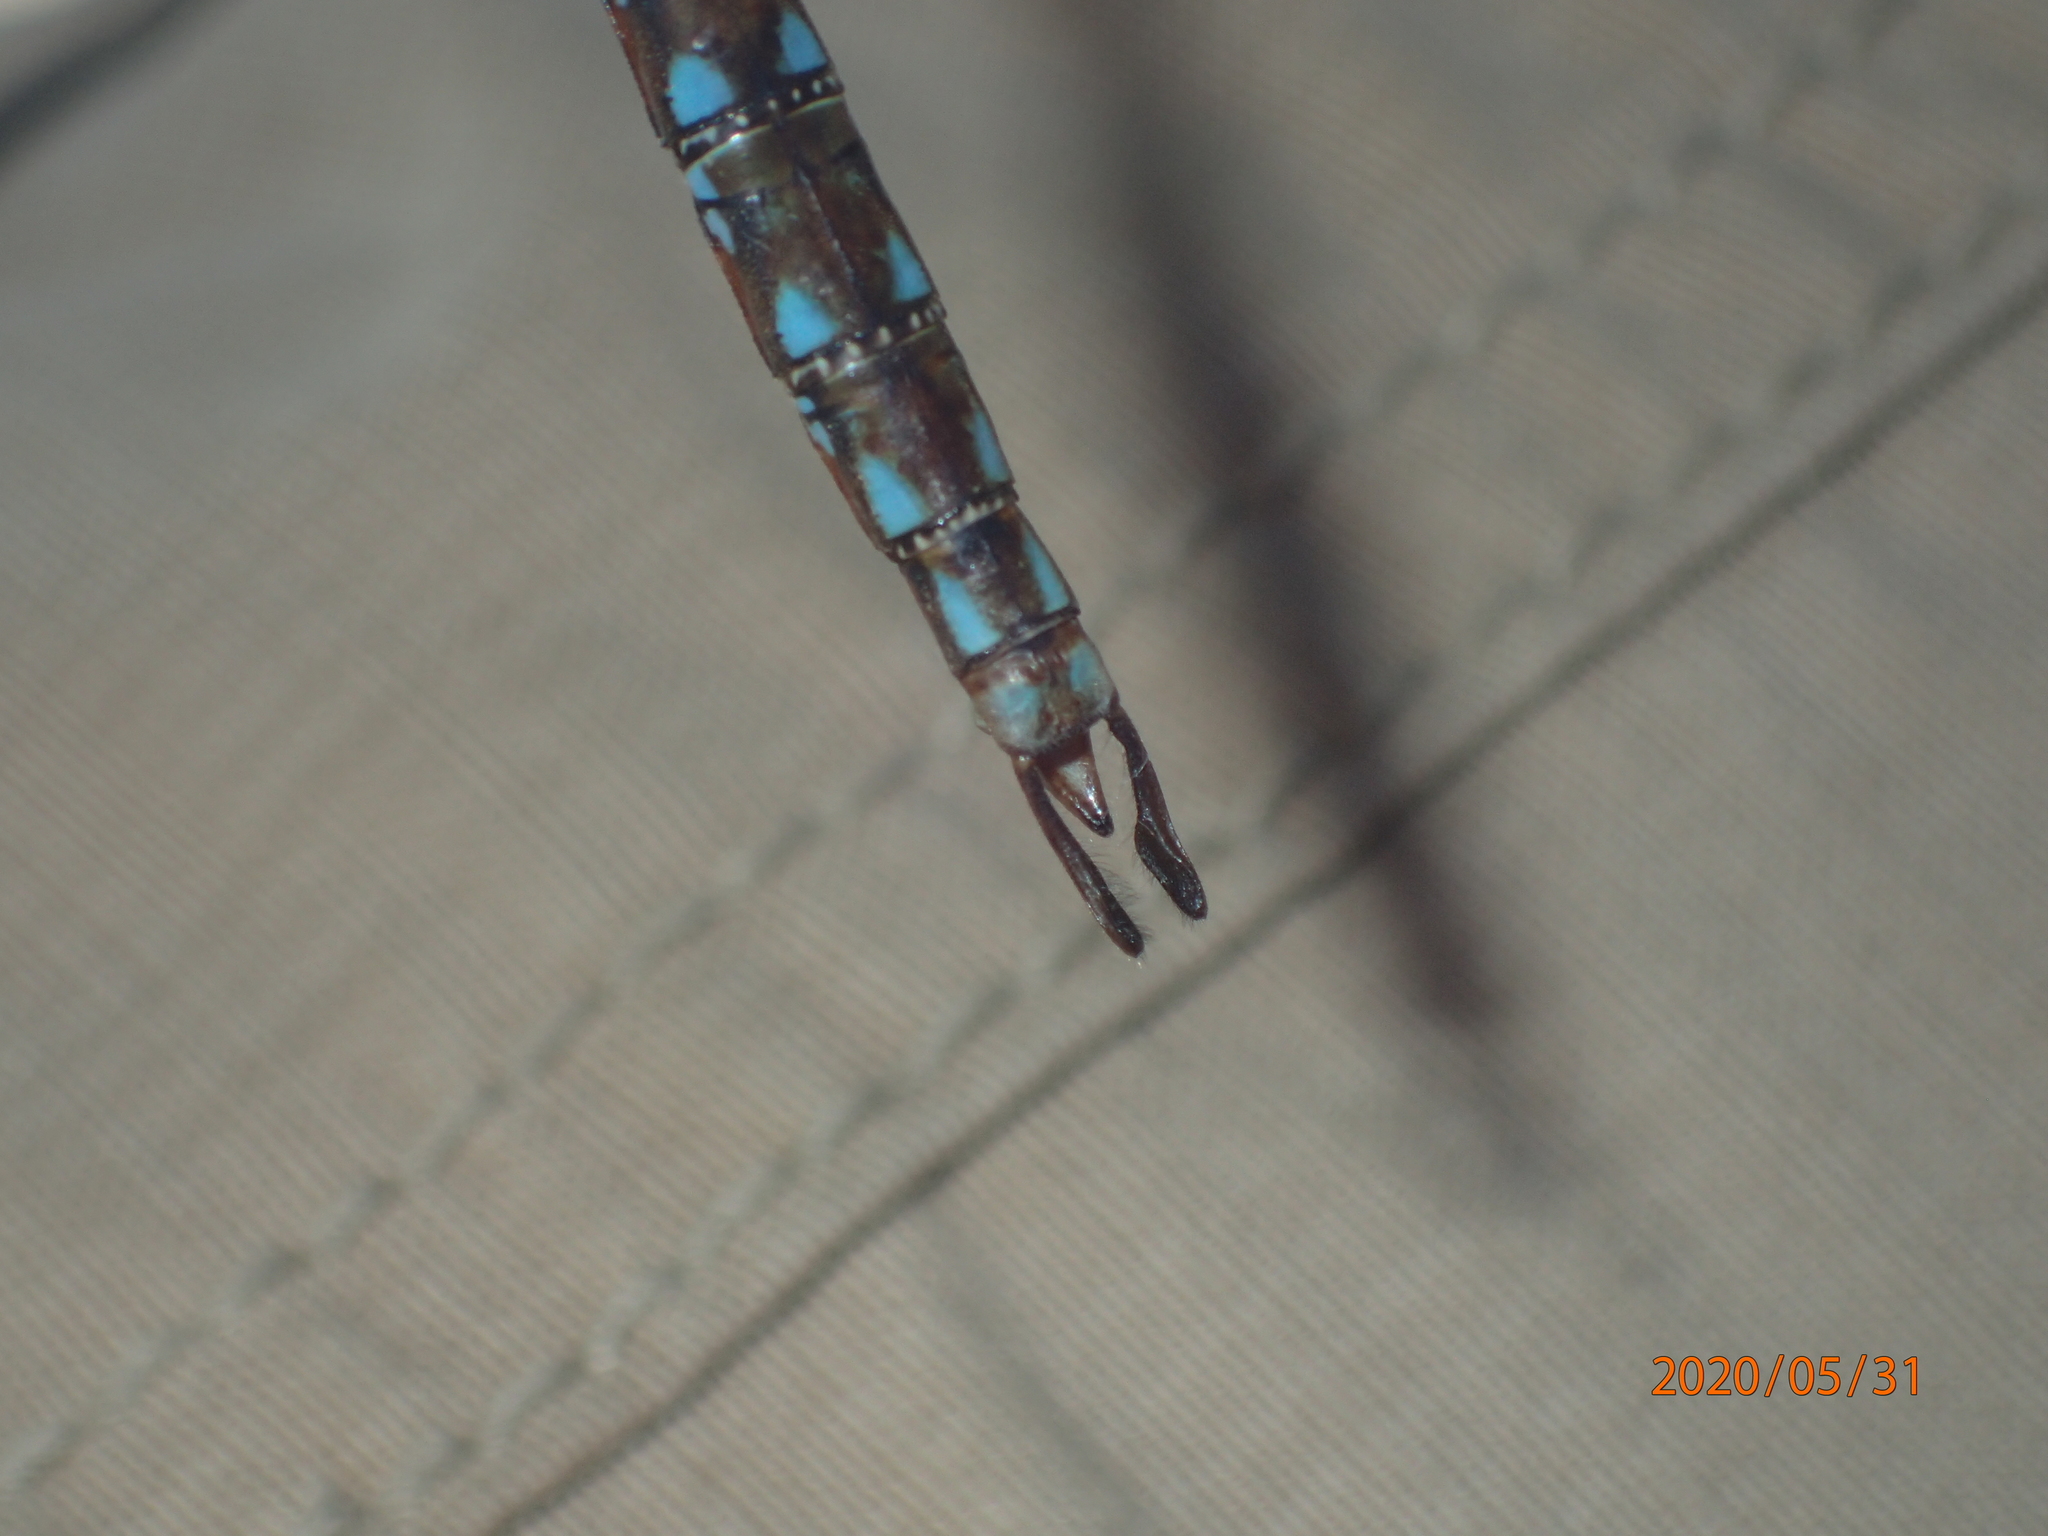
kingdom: Animalia
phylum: Arthropoda
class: Insecta
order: Odonata
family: Aeshnidae
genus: Basiaeschna
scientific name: Basiaeschna janata
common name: Springtime darner
